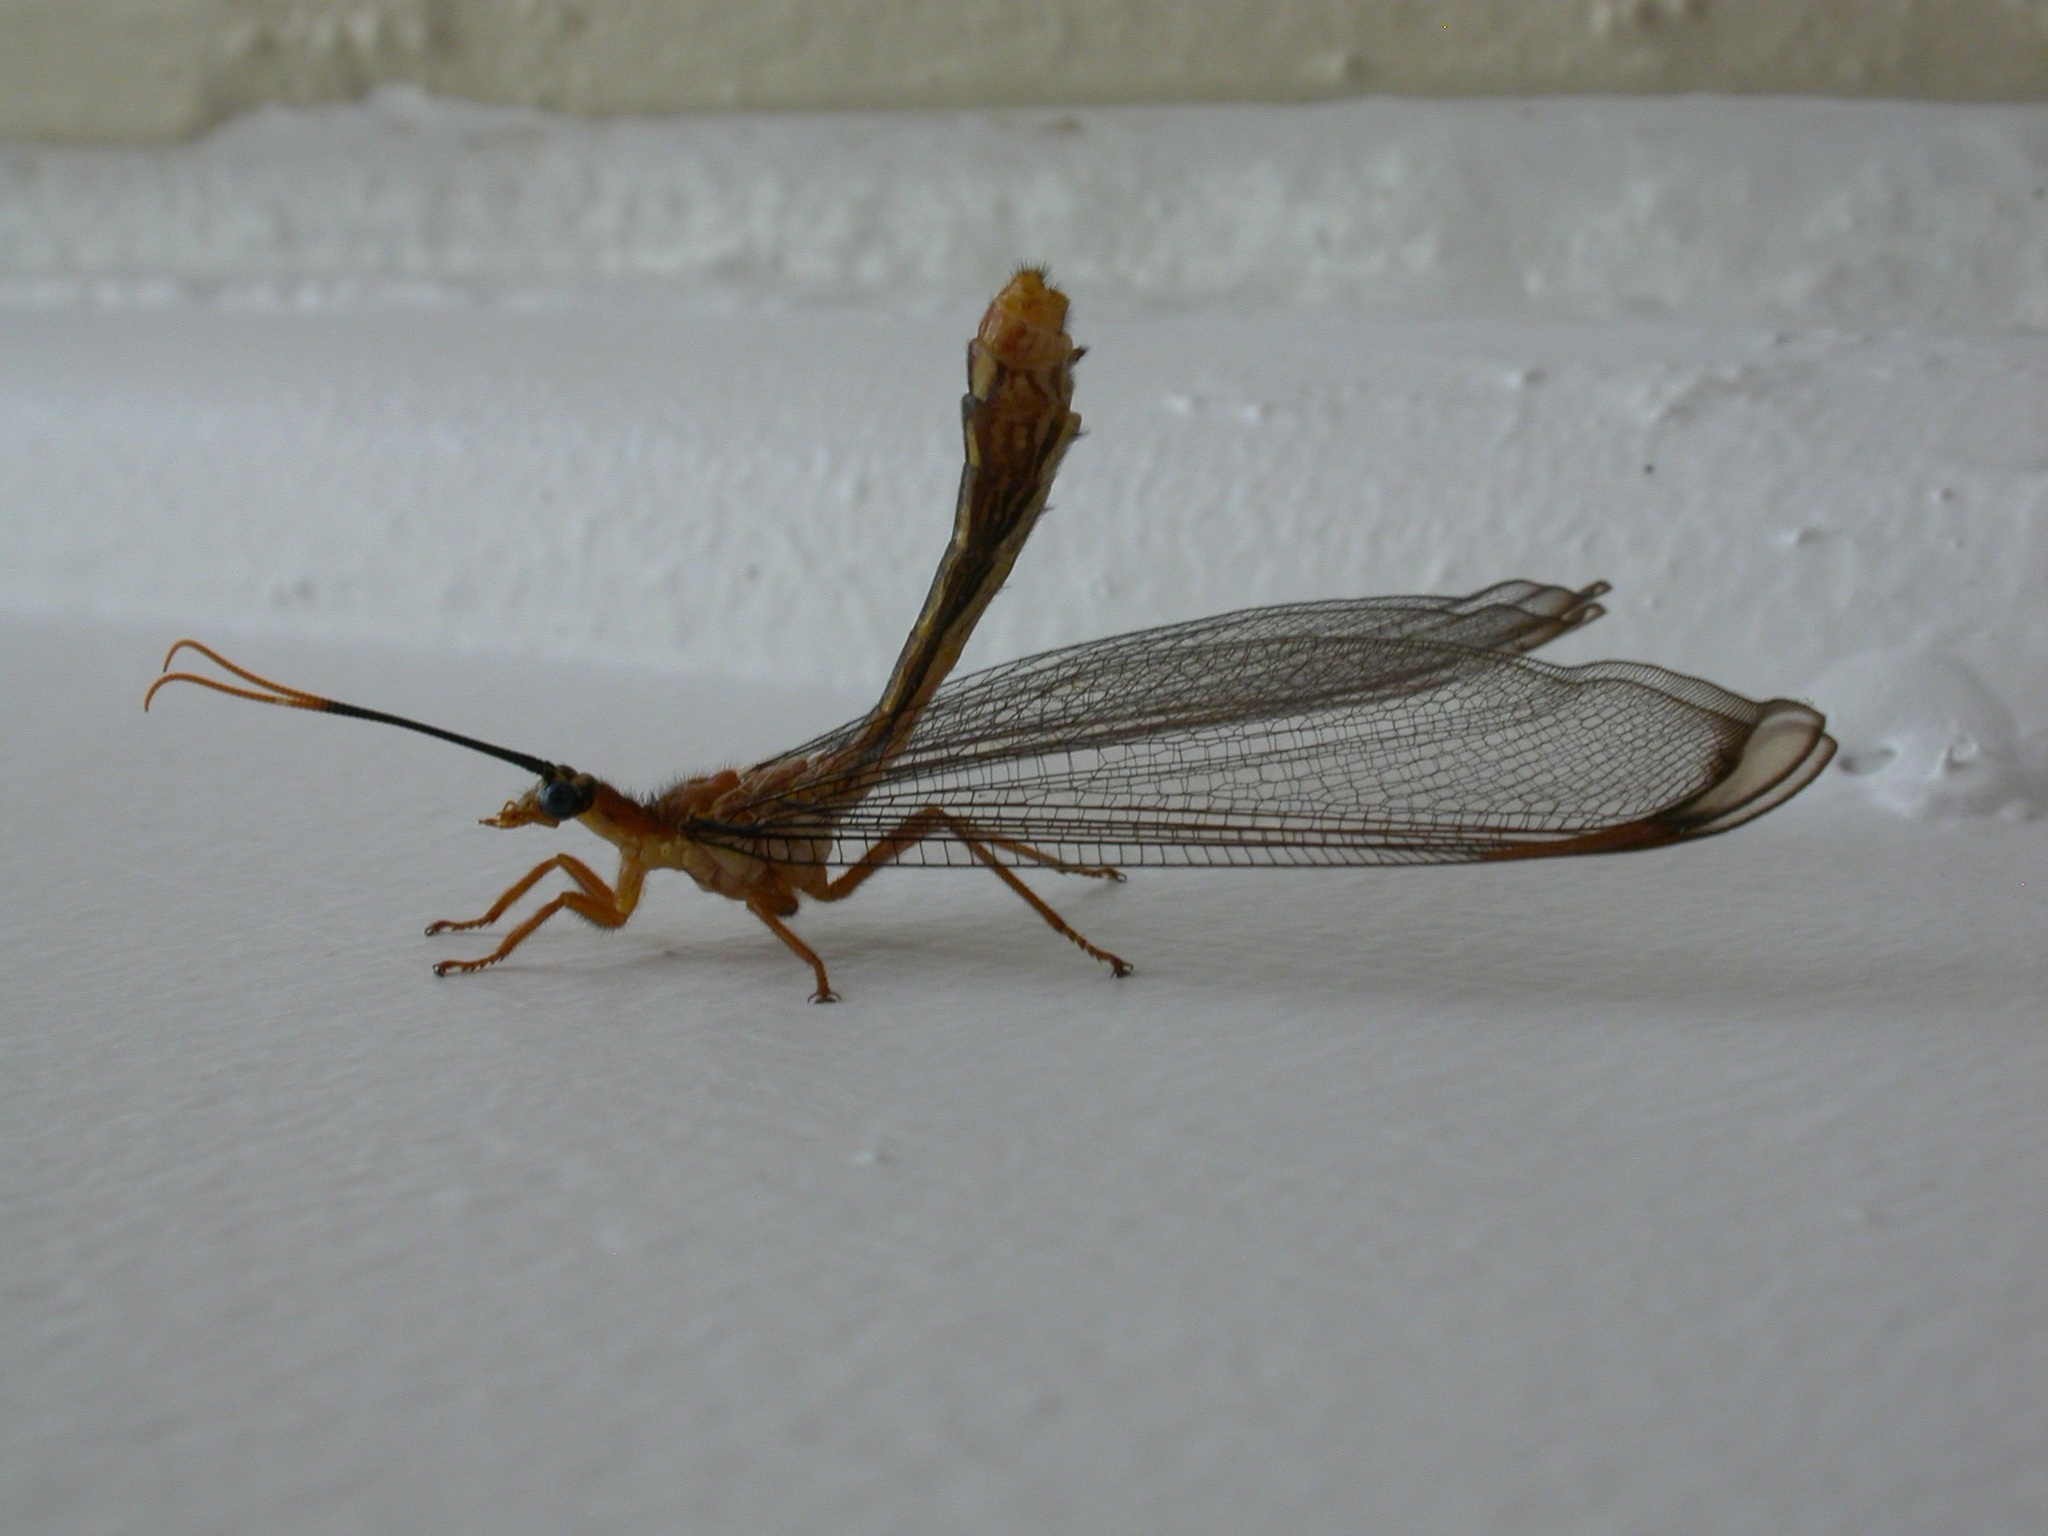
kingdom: Animalia
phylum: Arthropoda
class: Insecta
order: Neuroptera
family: Nymphidae
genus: Nymphes
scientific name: Nymphes myrmeleonoides
